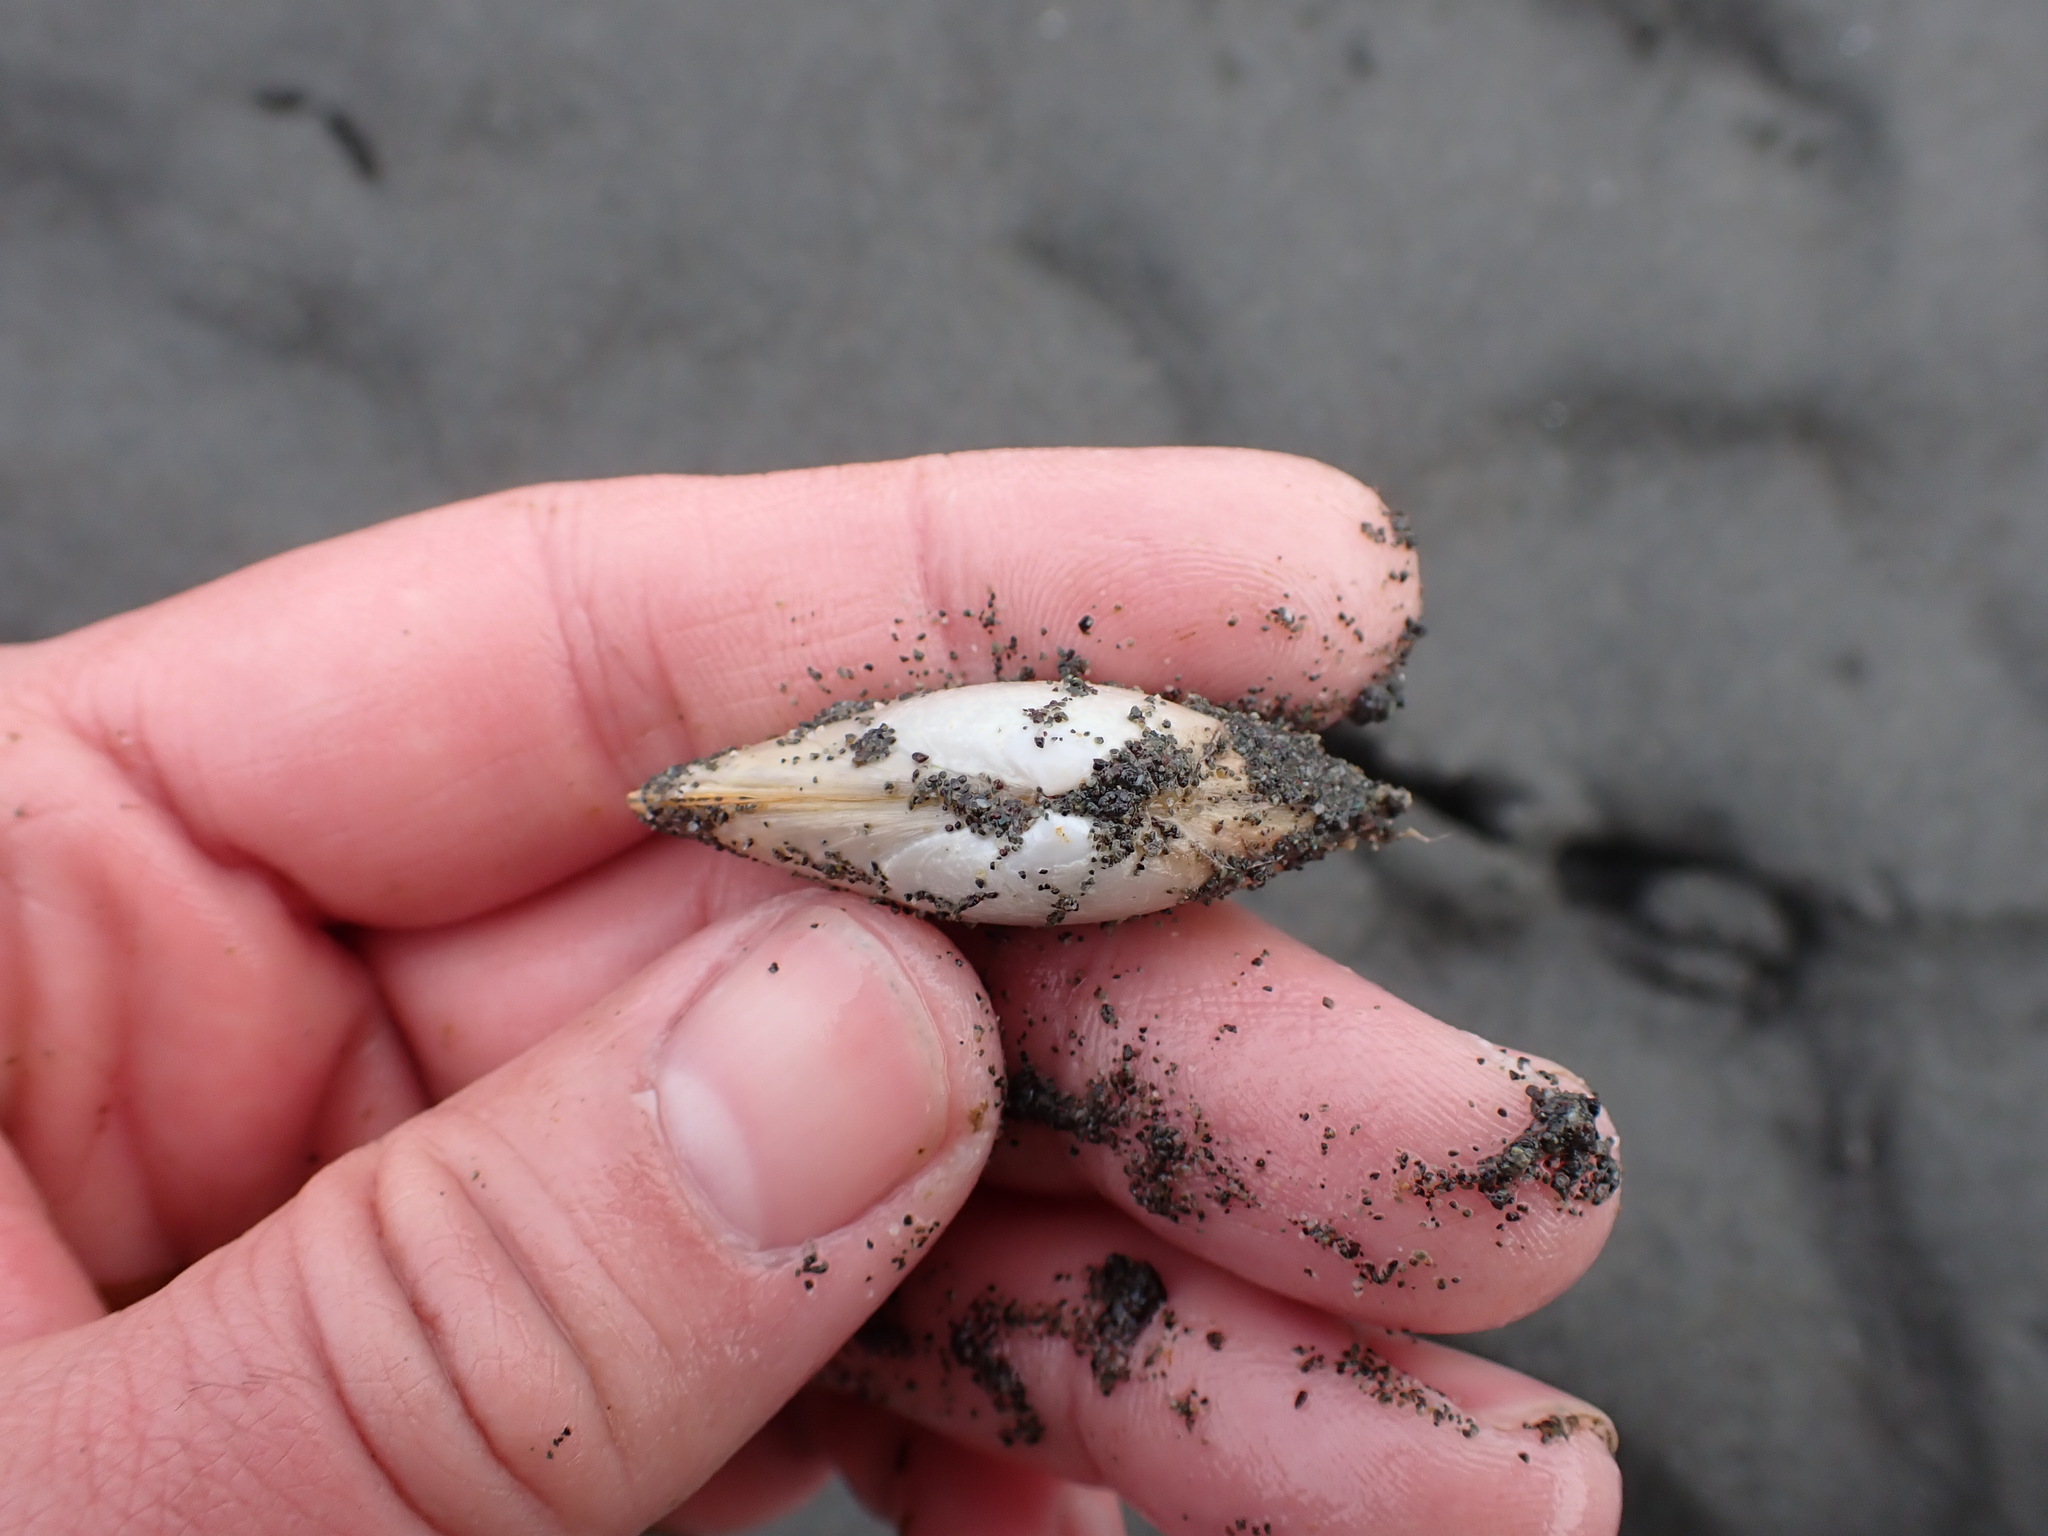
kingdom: Animalia
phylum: Mollusca
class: Bivalvia
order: Venerida
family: Mactridae
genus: Simomactra
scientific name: Simomactra falcata
